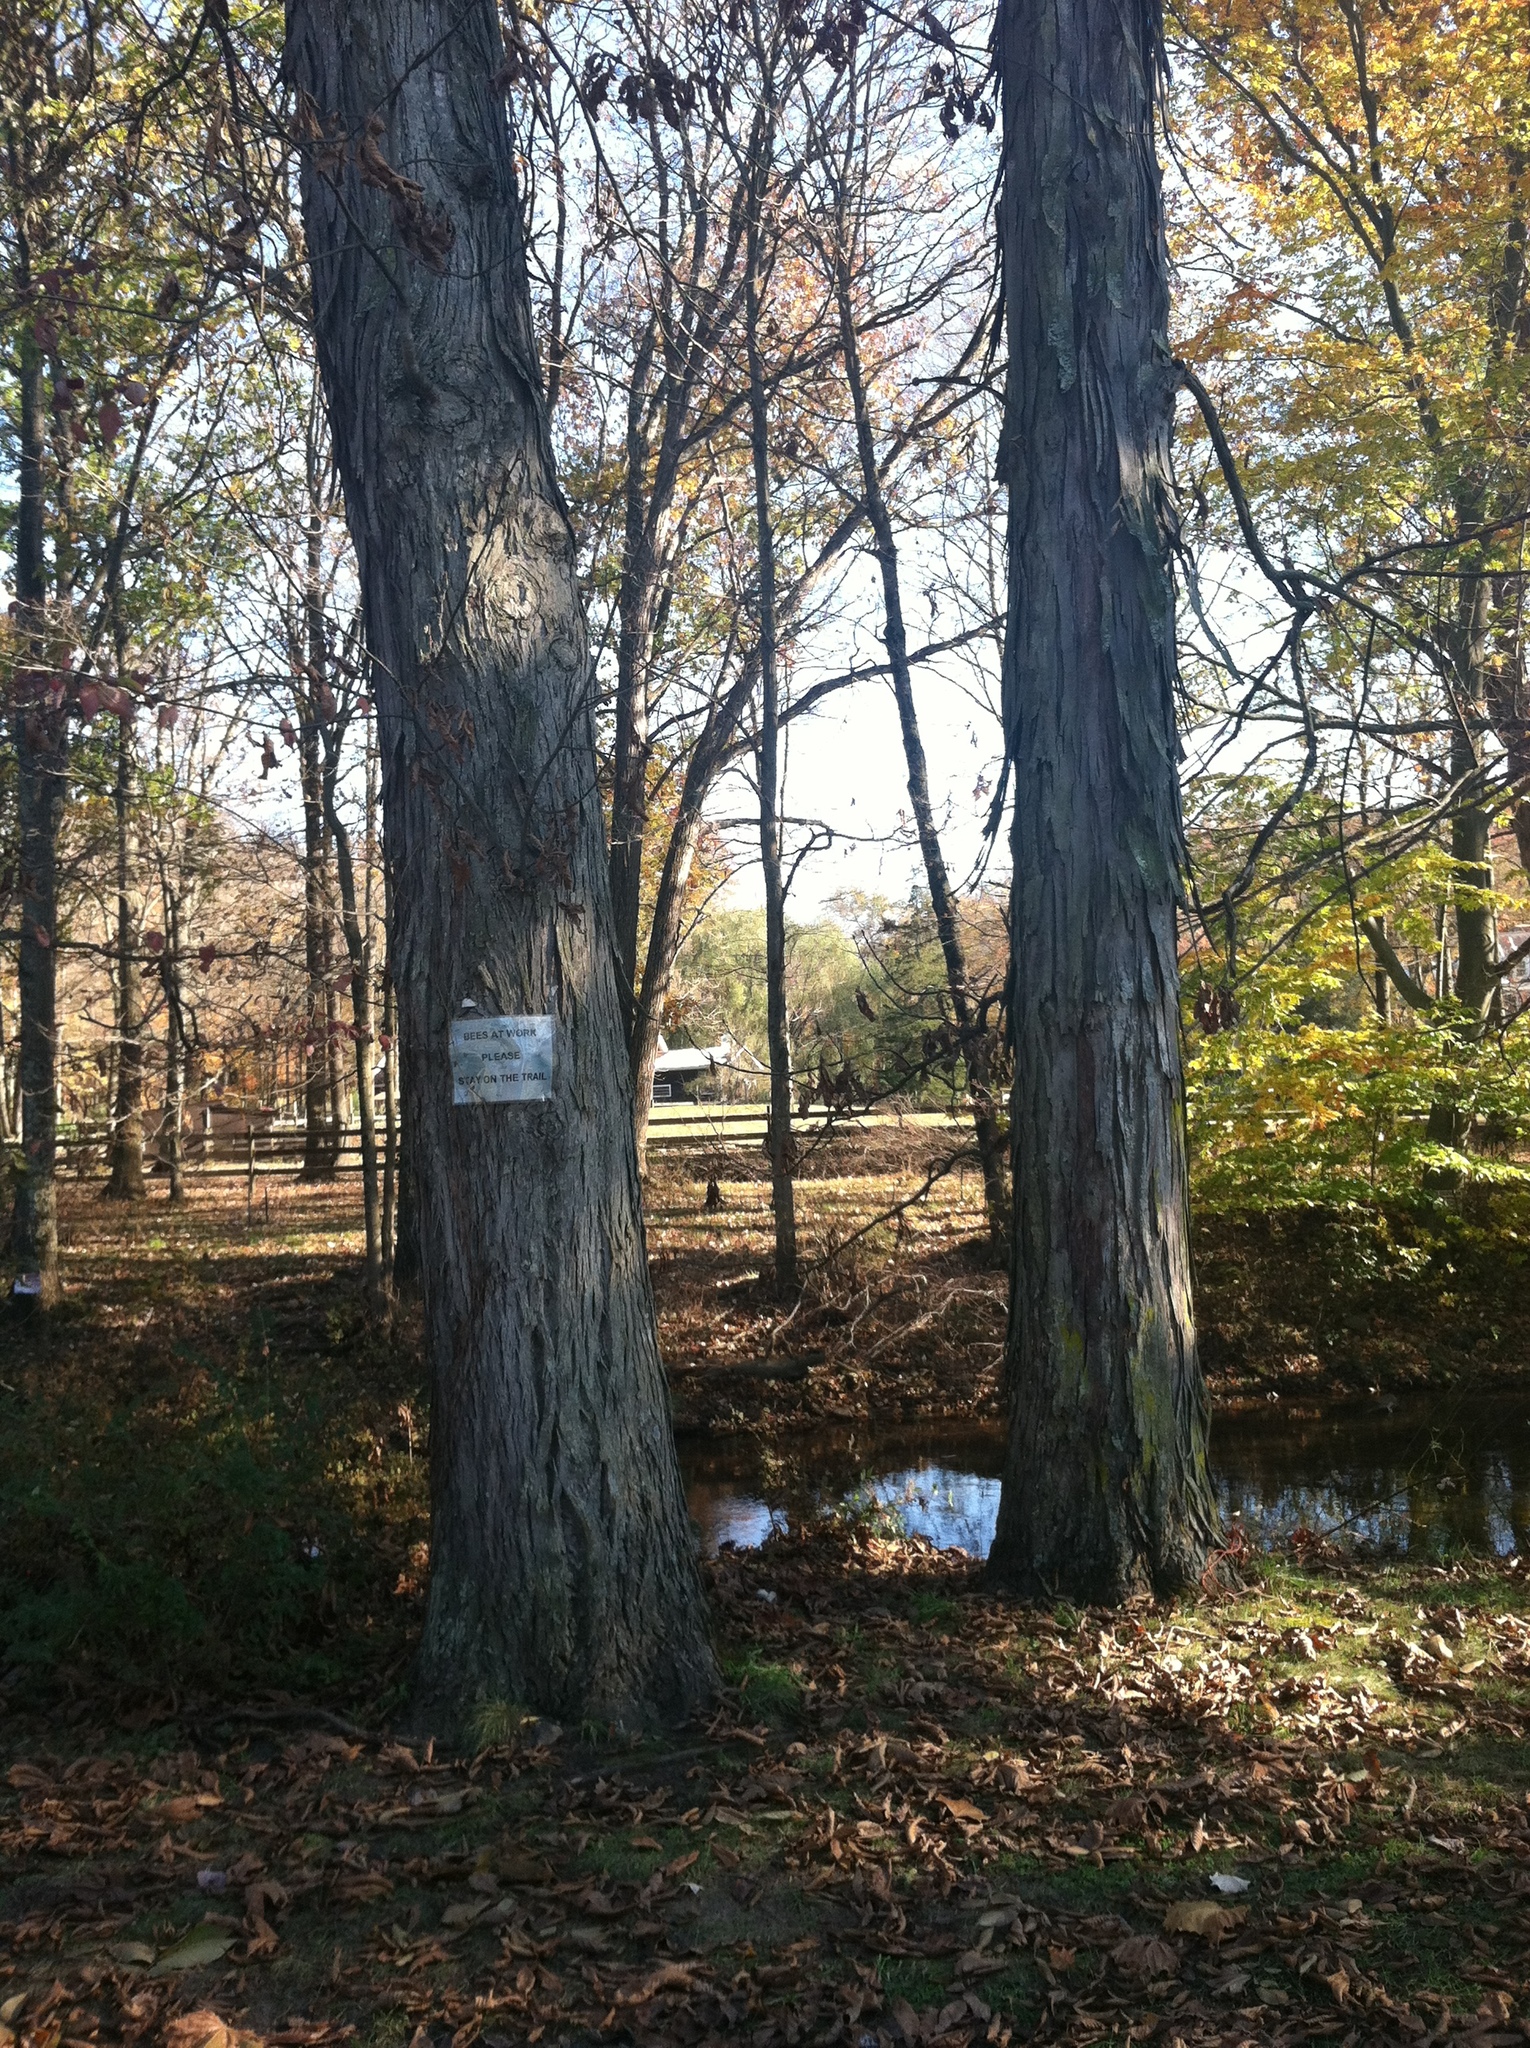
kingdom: Plantae
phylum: Tracheophyta
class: Magnoliopsida
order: Fagales
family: Juglandaceae
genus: Carya
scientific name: Carya ovata
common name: Shagbark hickory
